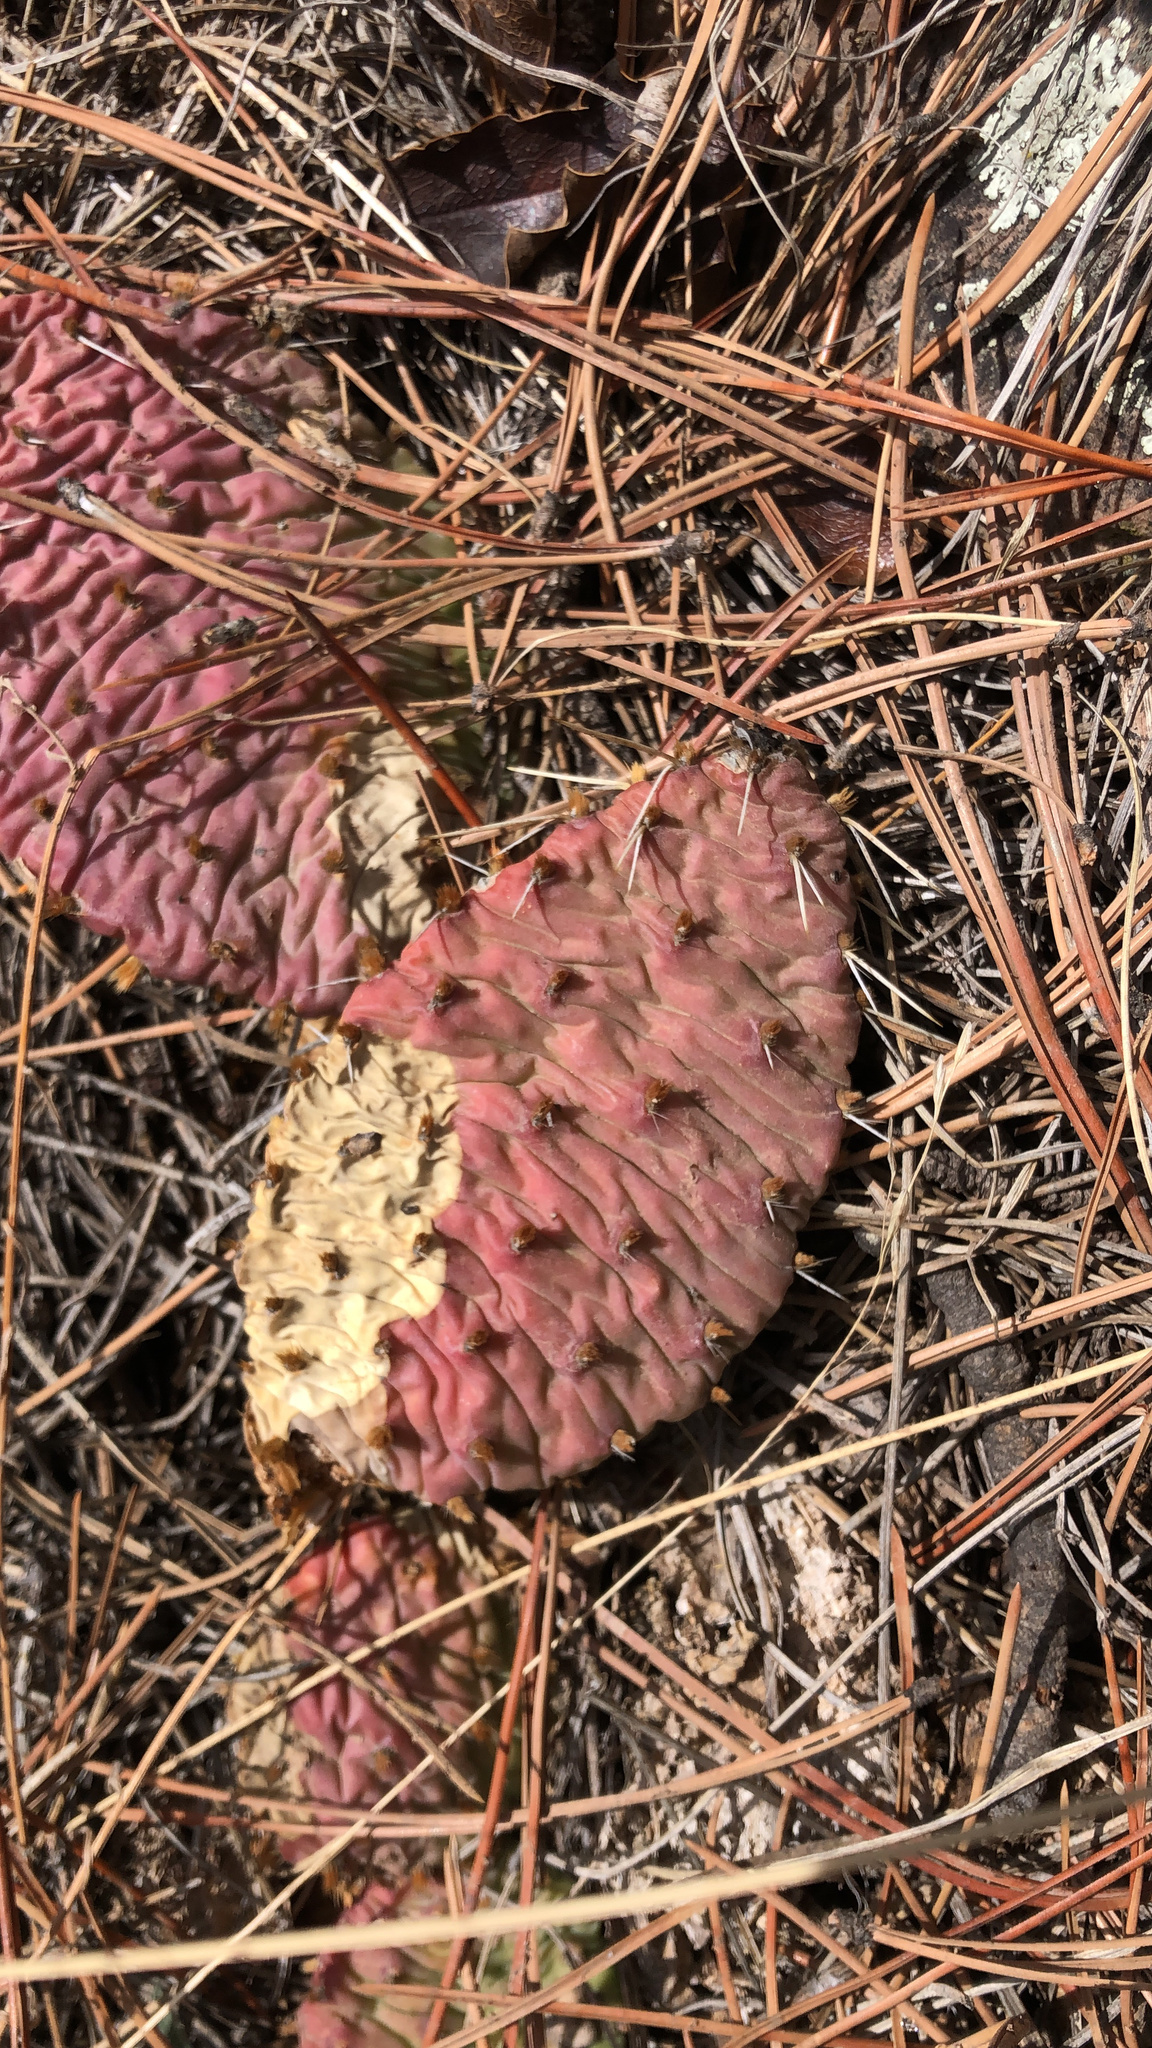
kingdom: Plantae
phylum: Tracheophyta
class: Magnoliopsida
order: Caryophyllales
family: Cactaceae
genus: Opuntia
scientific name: Opuntia macrorhiza
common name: Grassland pricklypear
